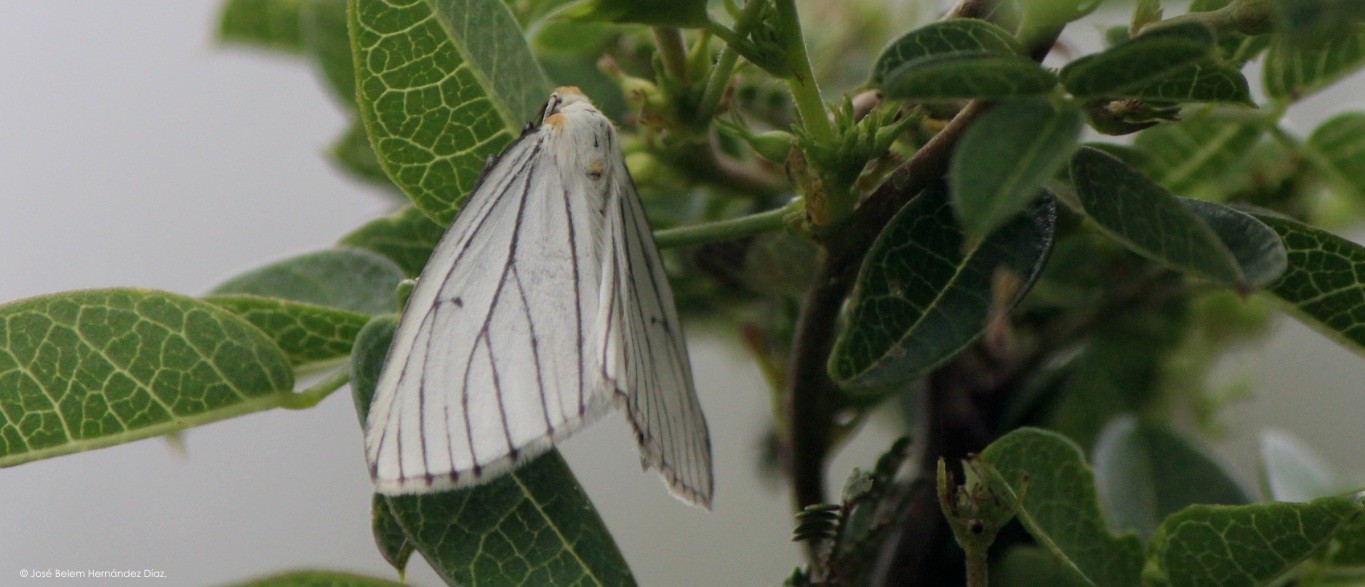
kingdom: Animalia
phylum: Arthropoda
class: Insecta
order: Lepidoptera
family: Geometridae
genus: Neuromelia
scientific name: Neuromelia selectata
